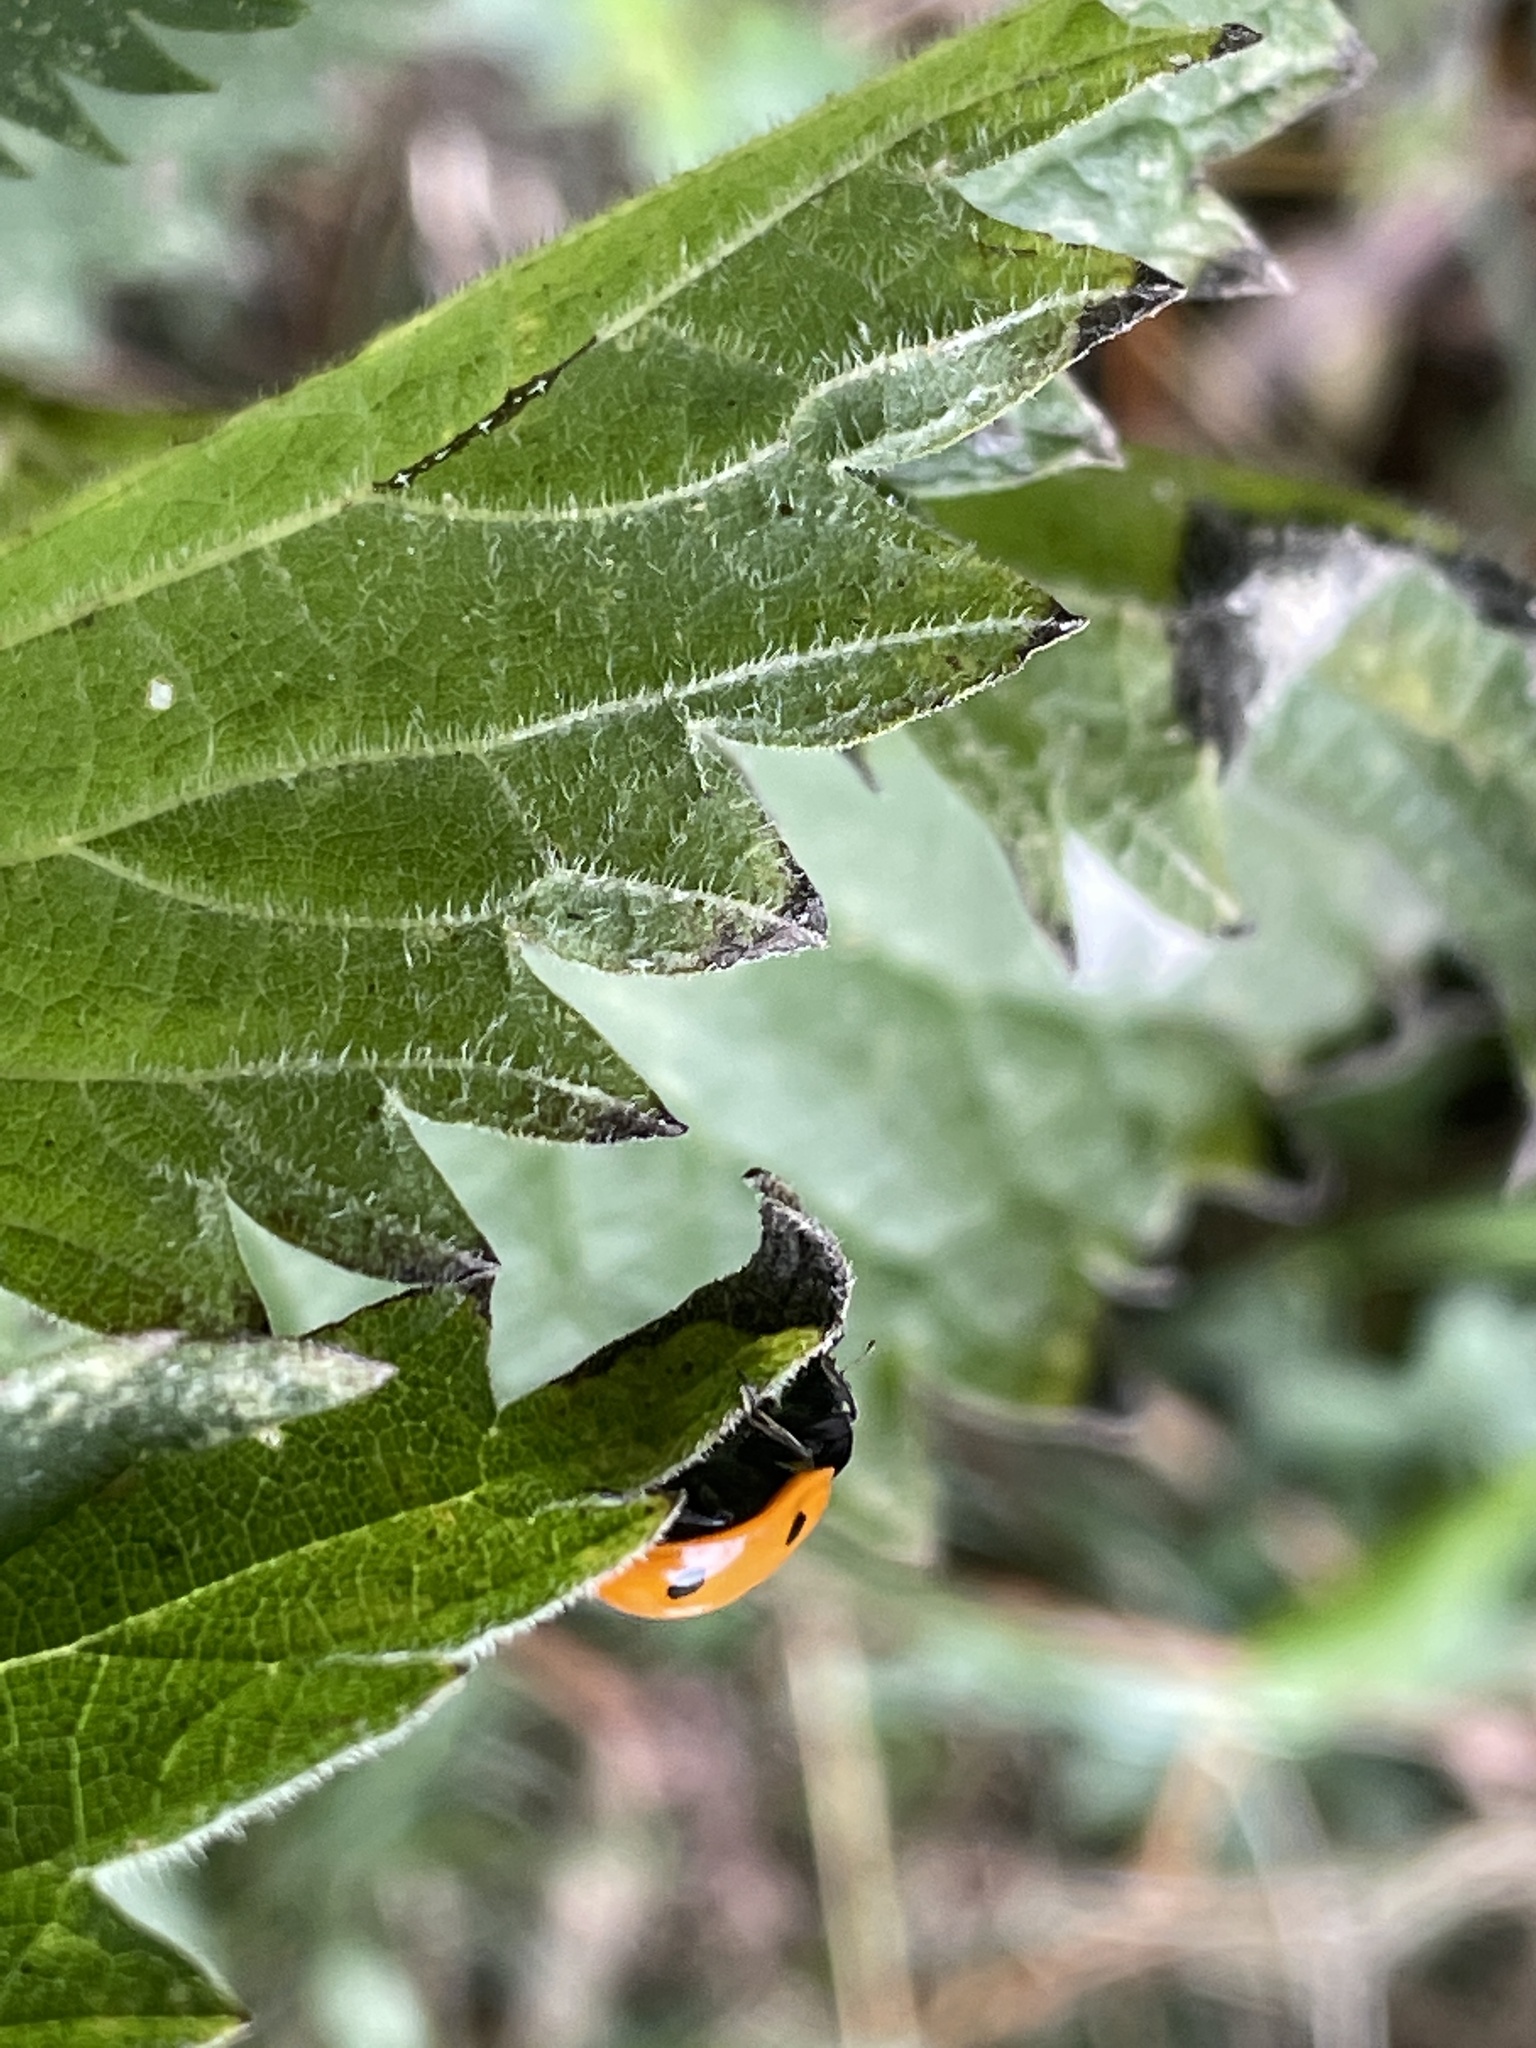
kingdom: Animalia
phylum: Arthropoda
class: Insecta
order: Coleoptera
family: Coccinellidae
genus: Coccinella
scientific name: Coccinella septempunctata
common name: Sevenspotted lady beetle
